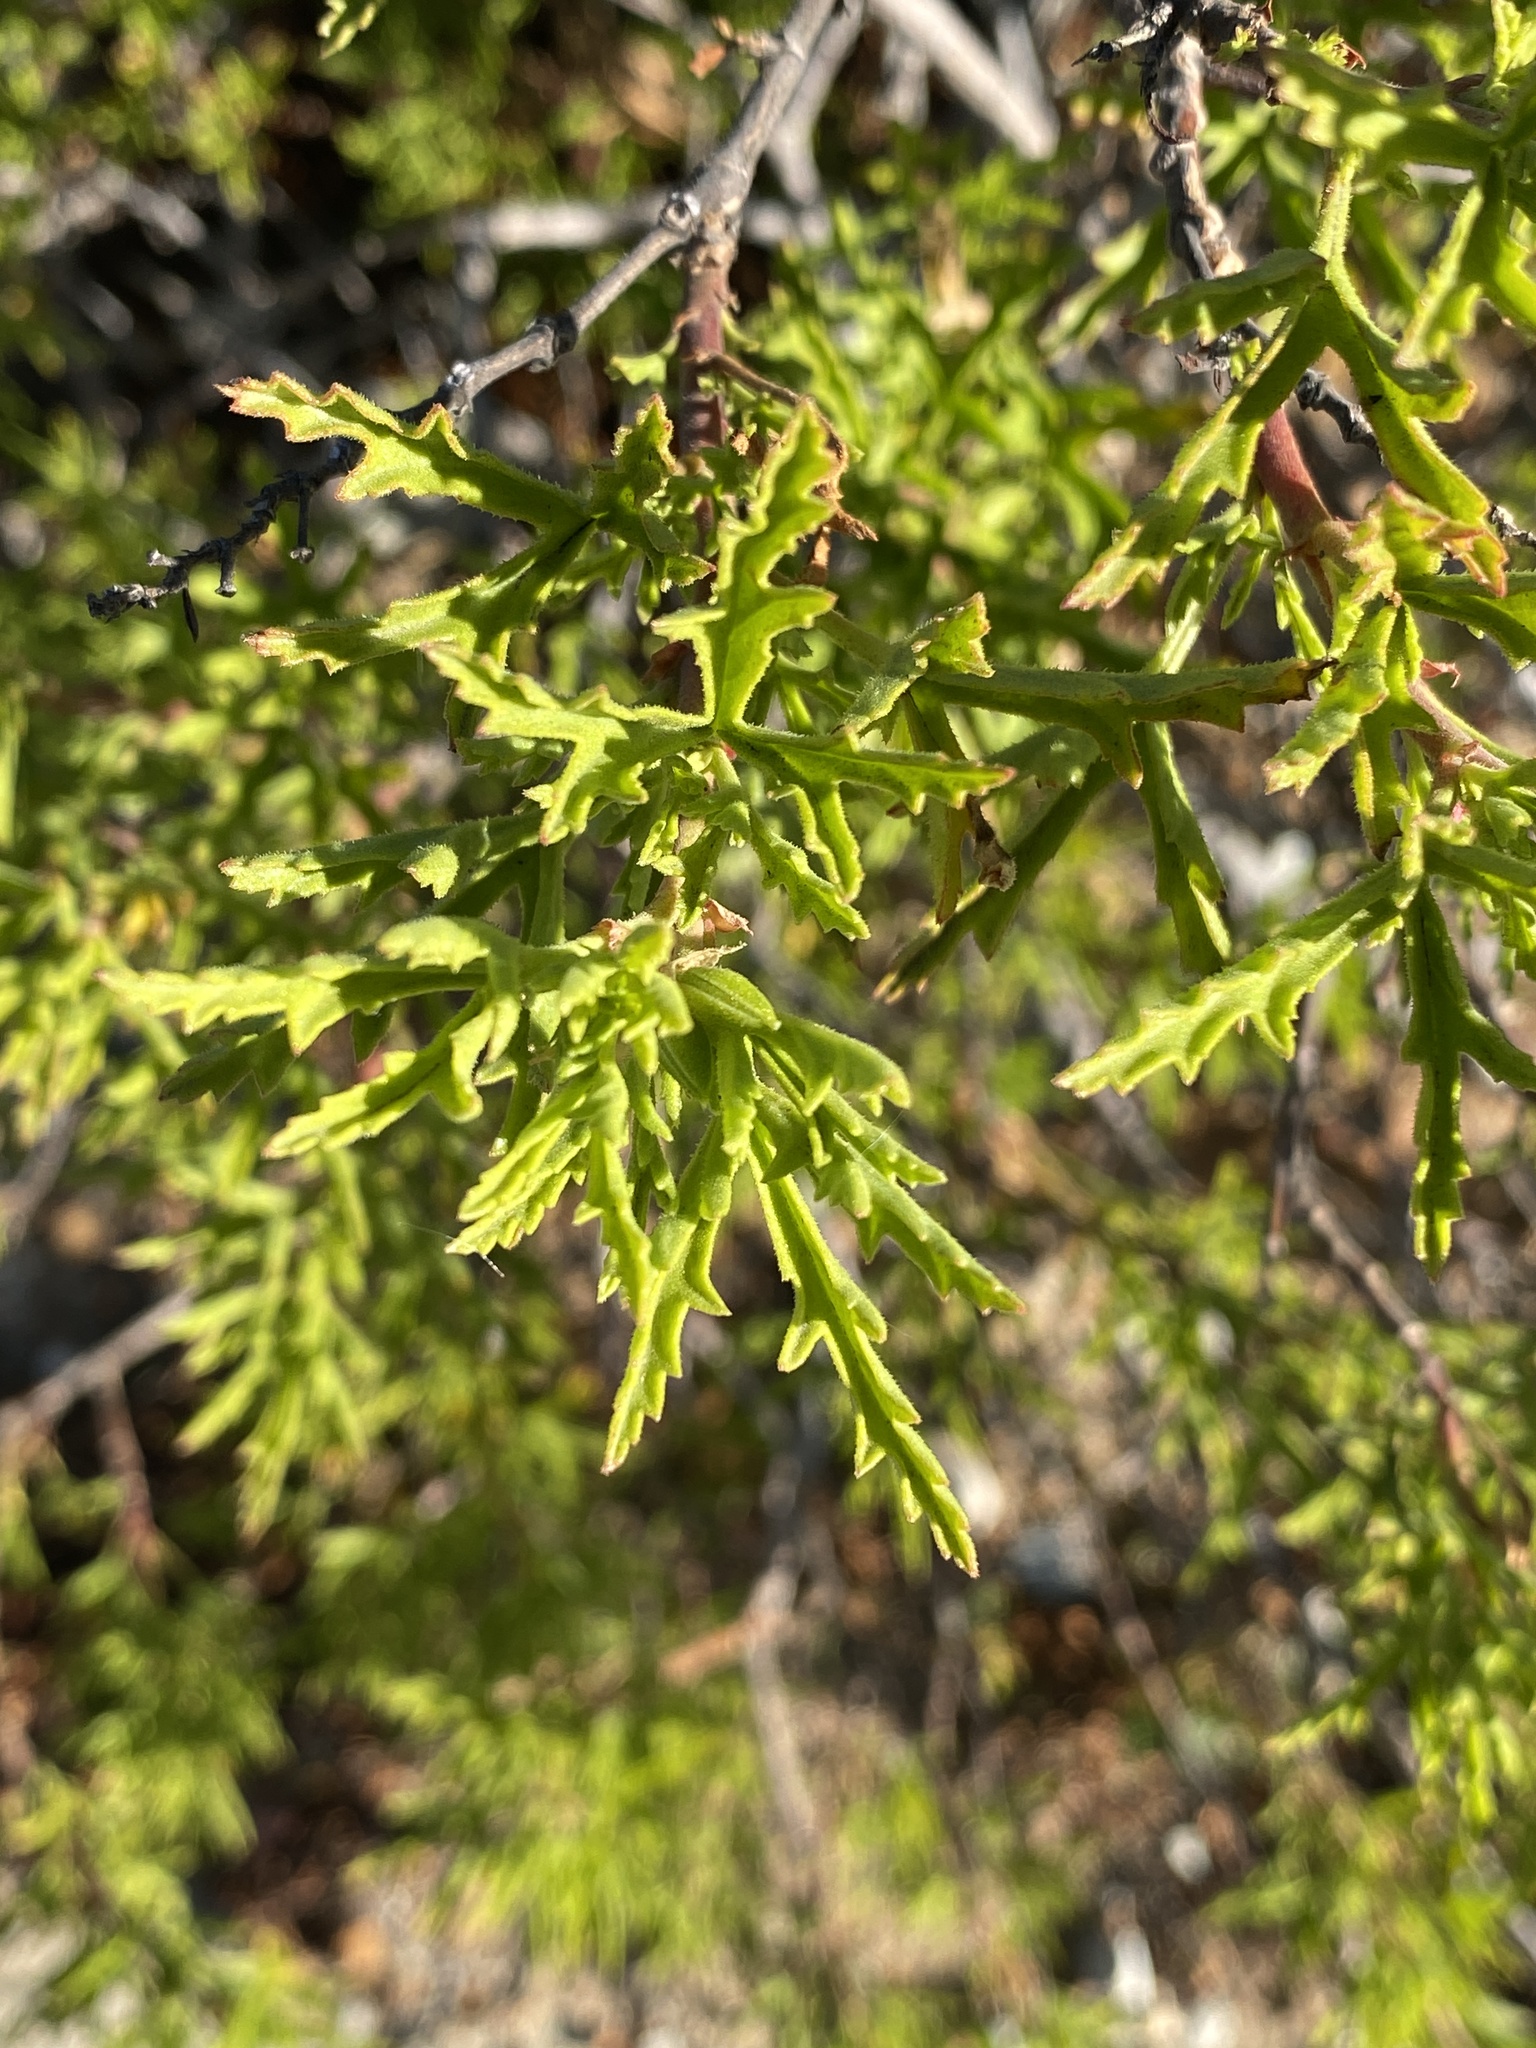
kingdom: Plantae
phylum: Tracheophyta
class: Magnoliopsida
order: Geraniales
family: Geraniaceae
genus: Pelargonium
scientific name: Pelargonium scabrum
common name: Apricot geranium
